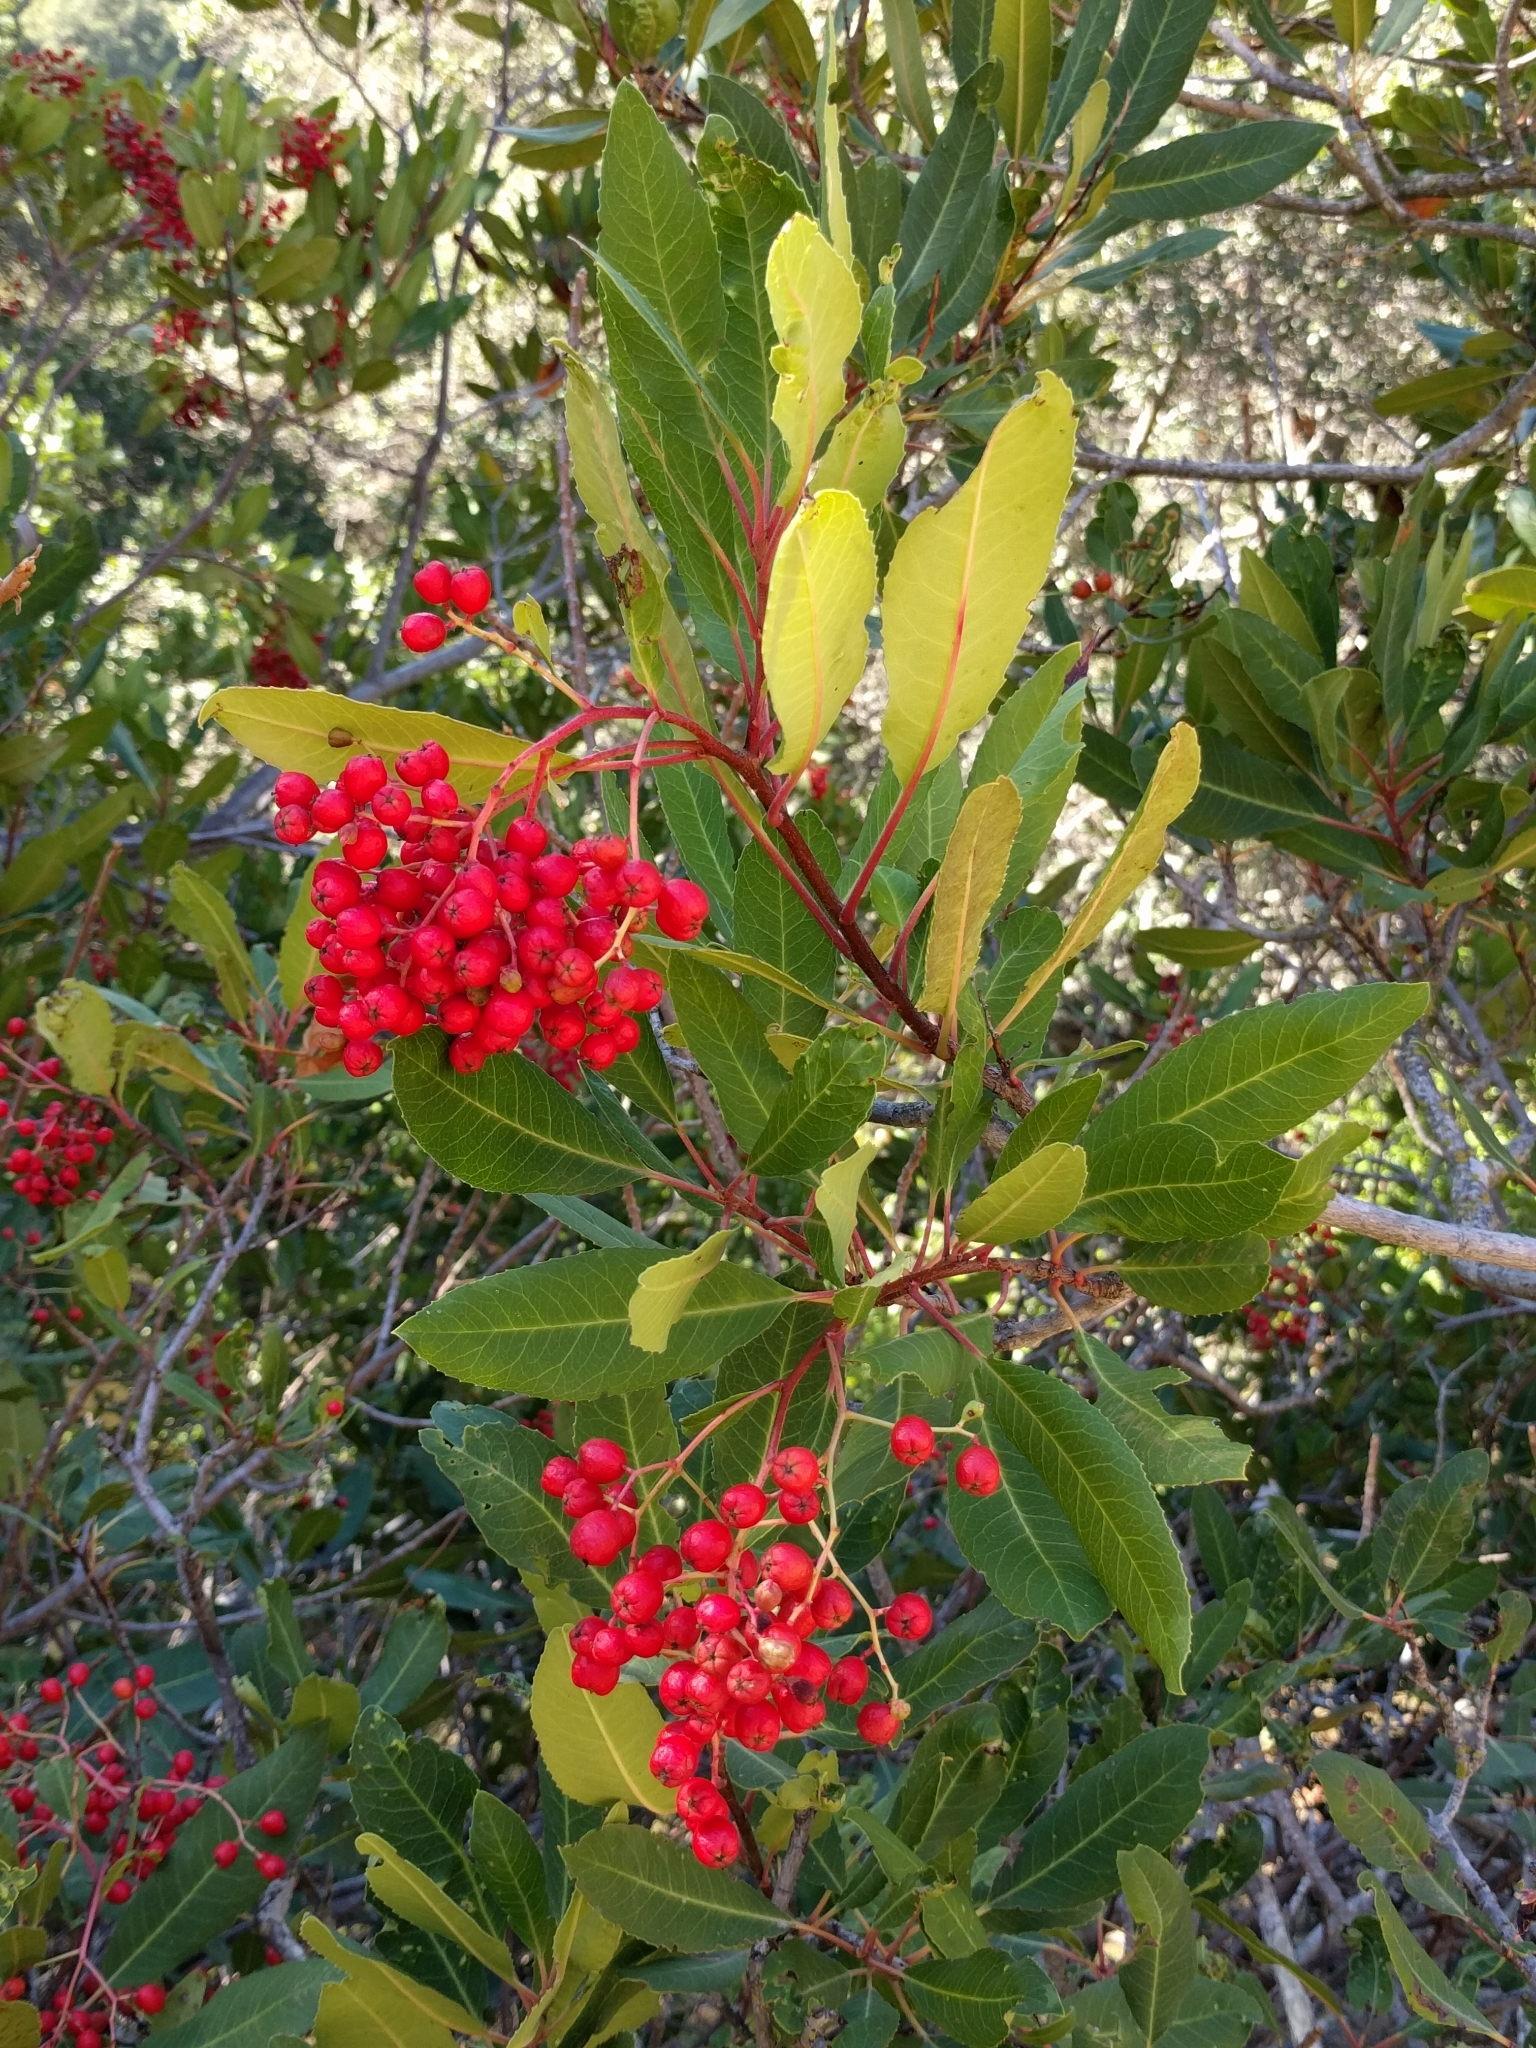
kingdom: Plantae
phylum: Tracheophyta
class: Magnoliopsida
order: Rosales
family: Rosaceae
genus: Heteromeles
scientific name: Heteromeles arbutifolia
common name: California-holly
